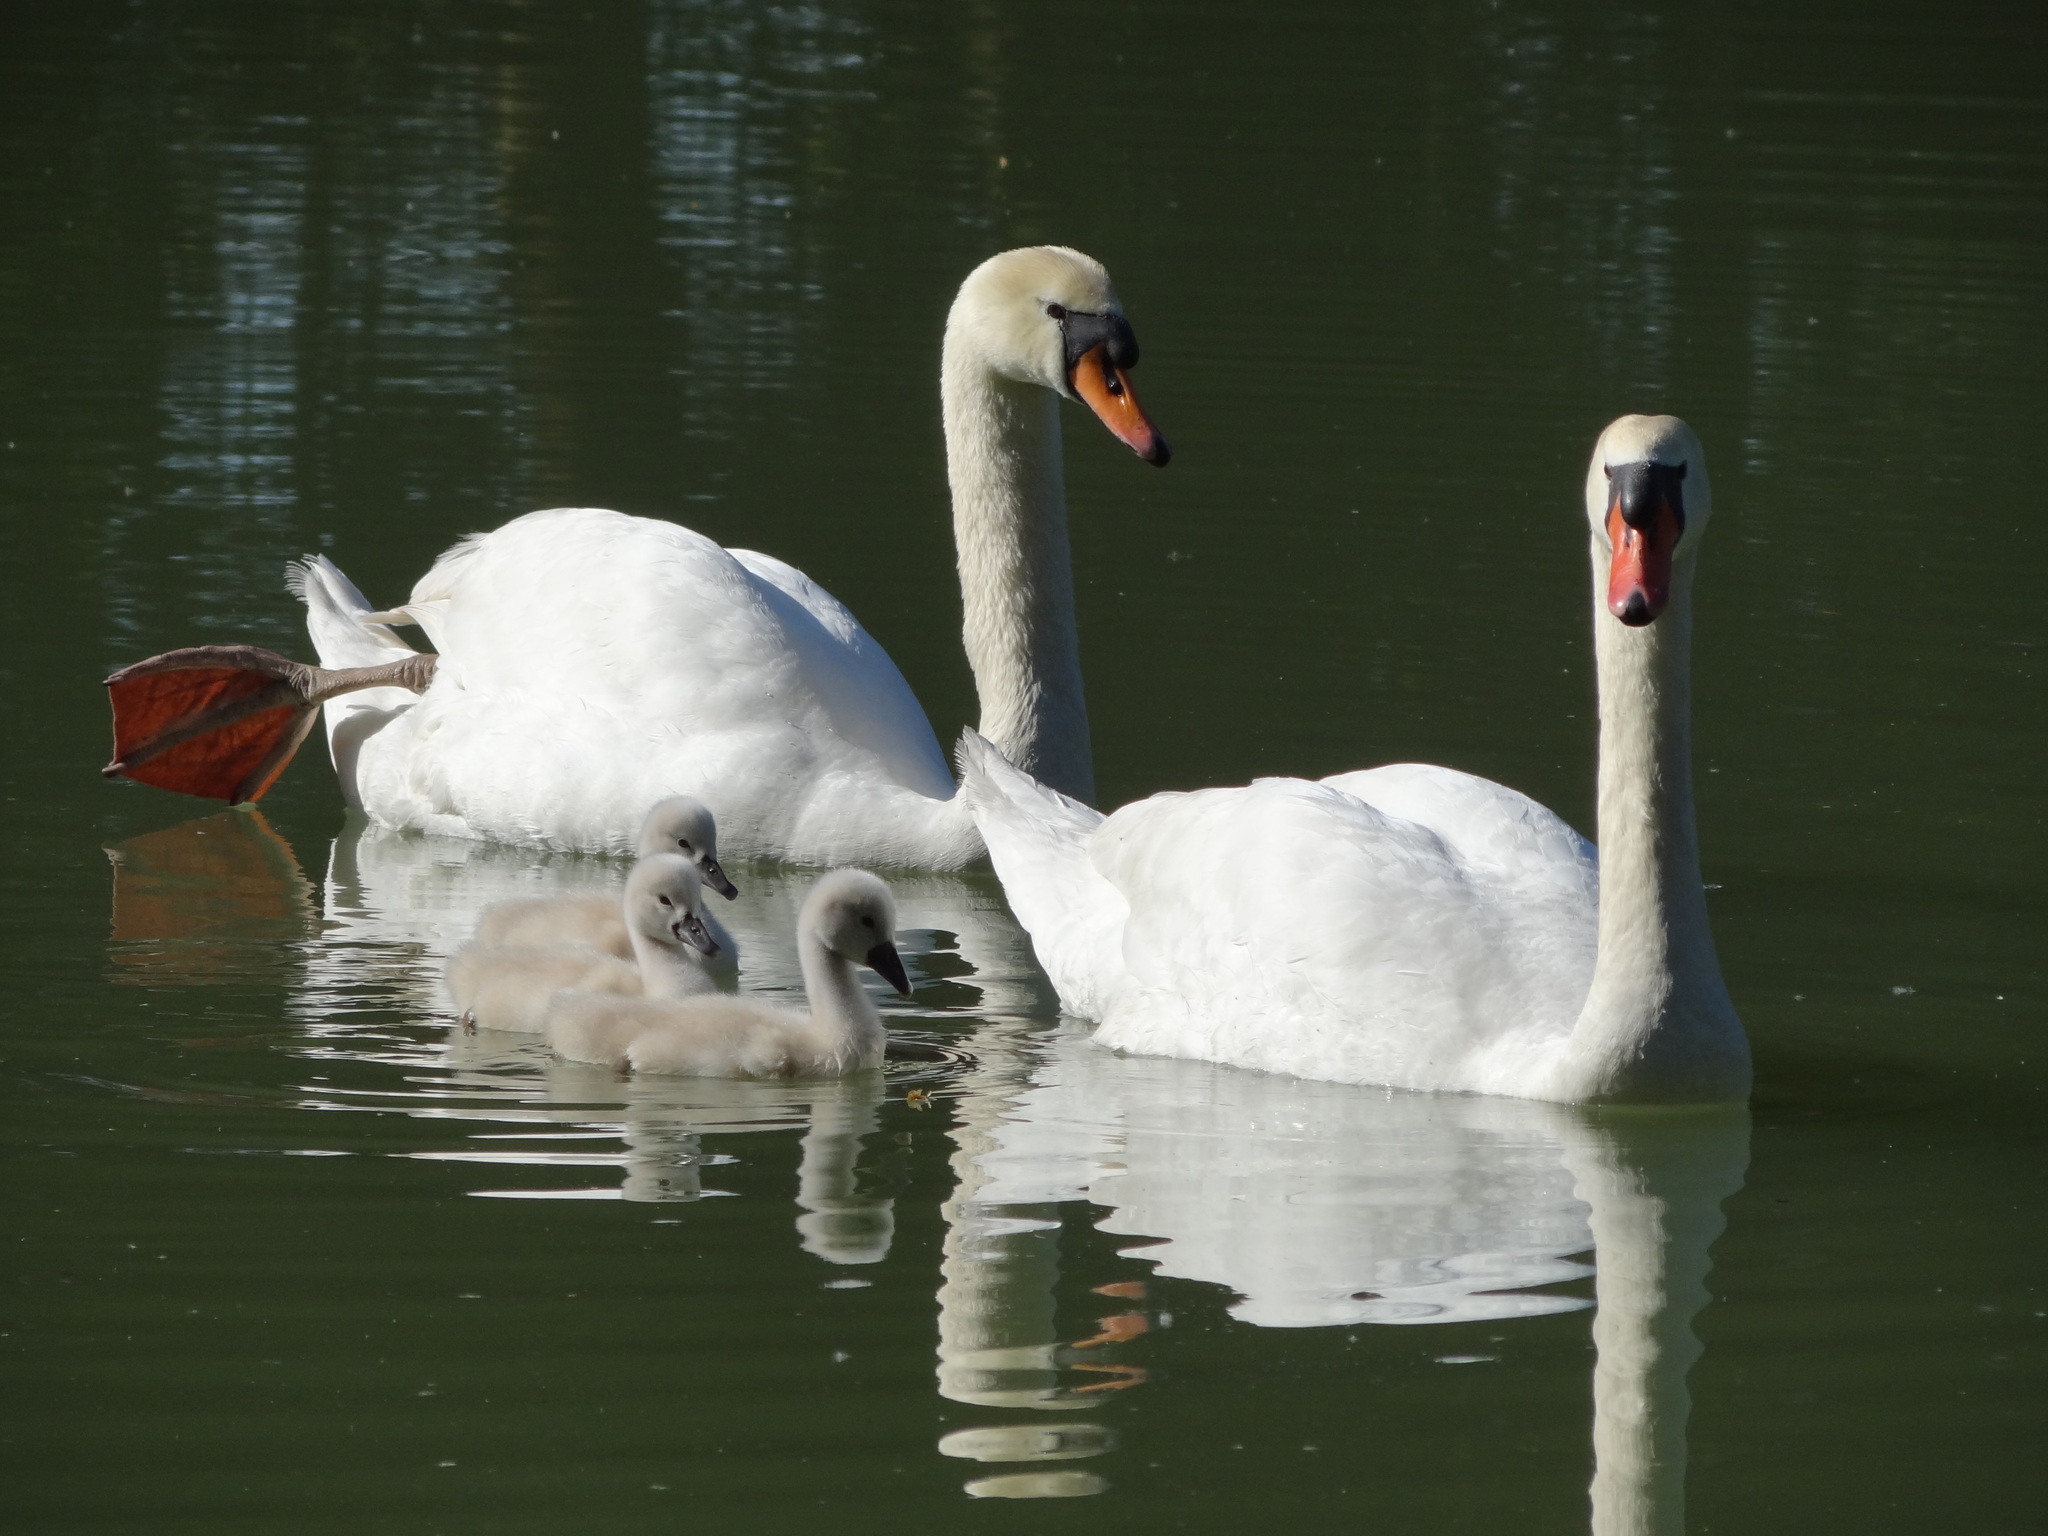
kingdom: Animalia
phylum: Chordata
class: Aves
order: Anseriformes
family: Anatidae
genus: Cygnus
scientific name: Cygnus olor
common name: Mute swan
